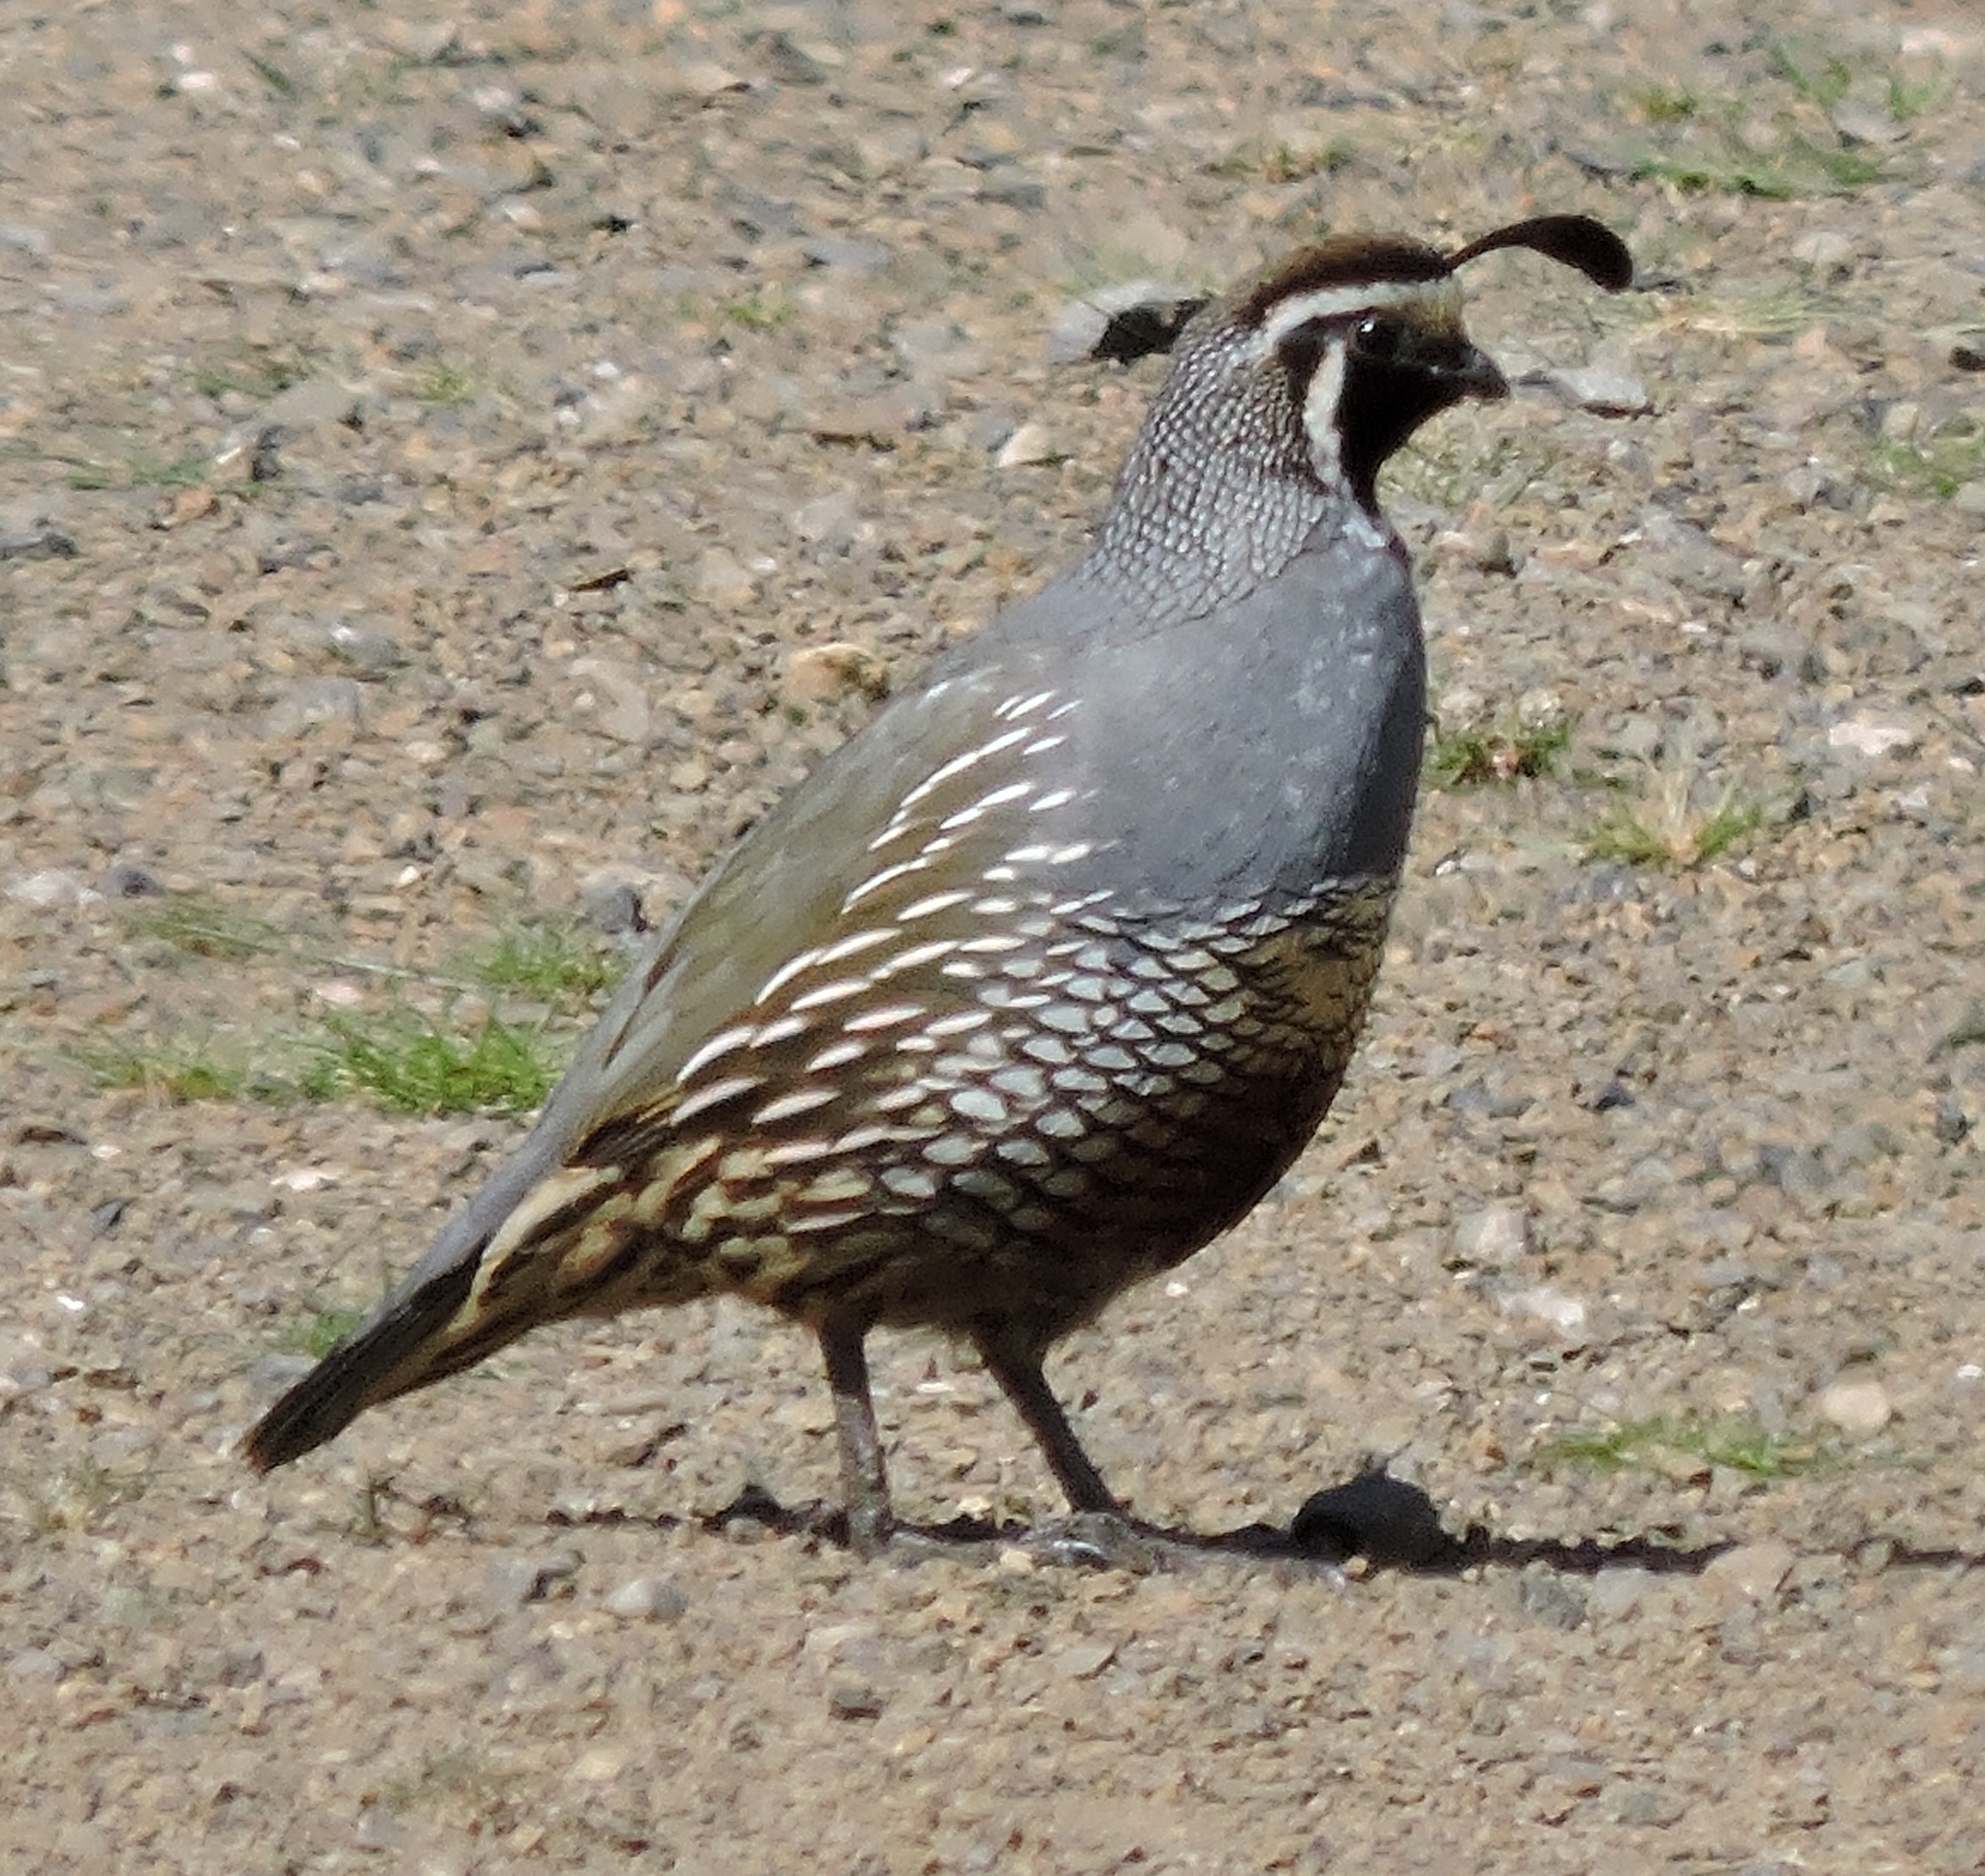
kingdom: Animalia
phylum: Chordata
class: Aves
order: Galliformes
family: Odontophoridae
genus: Callipepla
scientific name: Callipepla californica
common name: California quail
